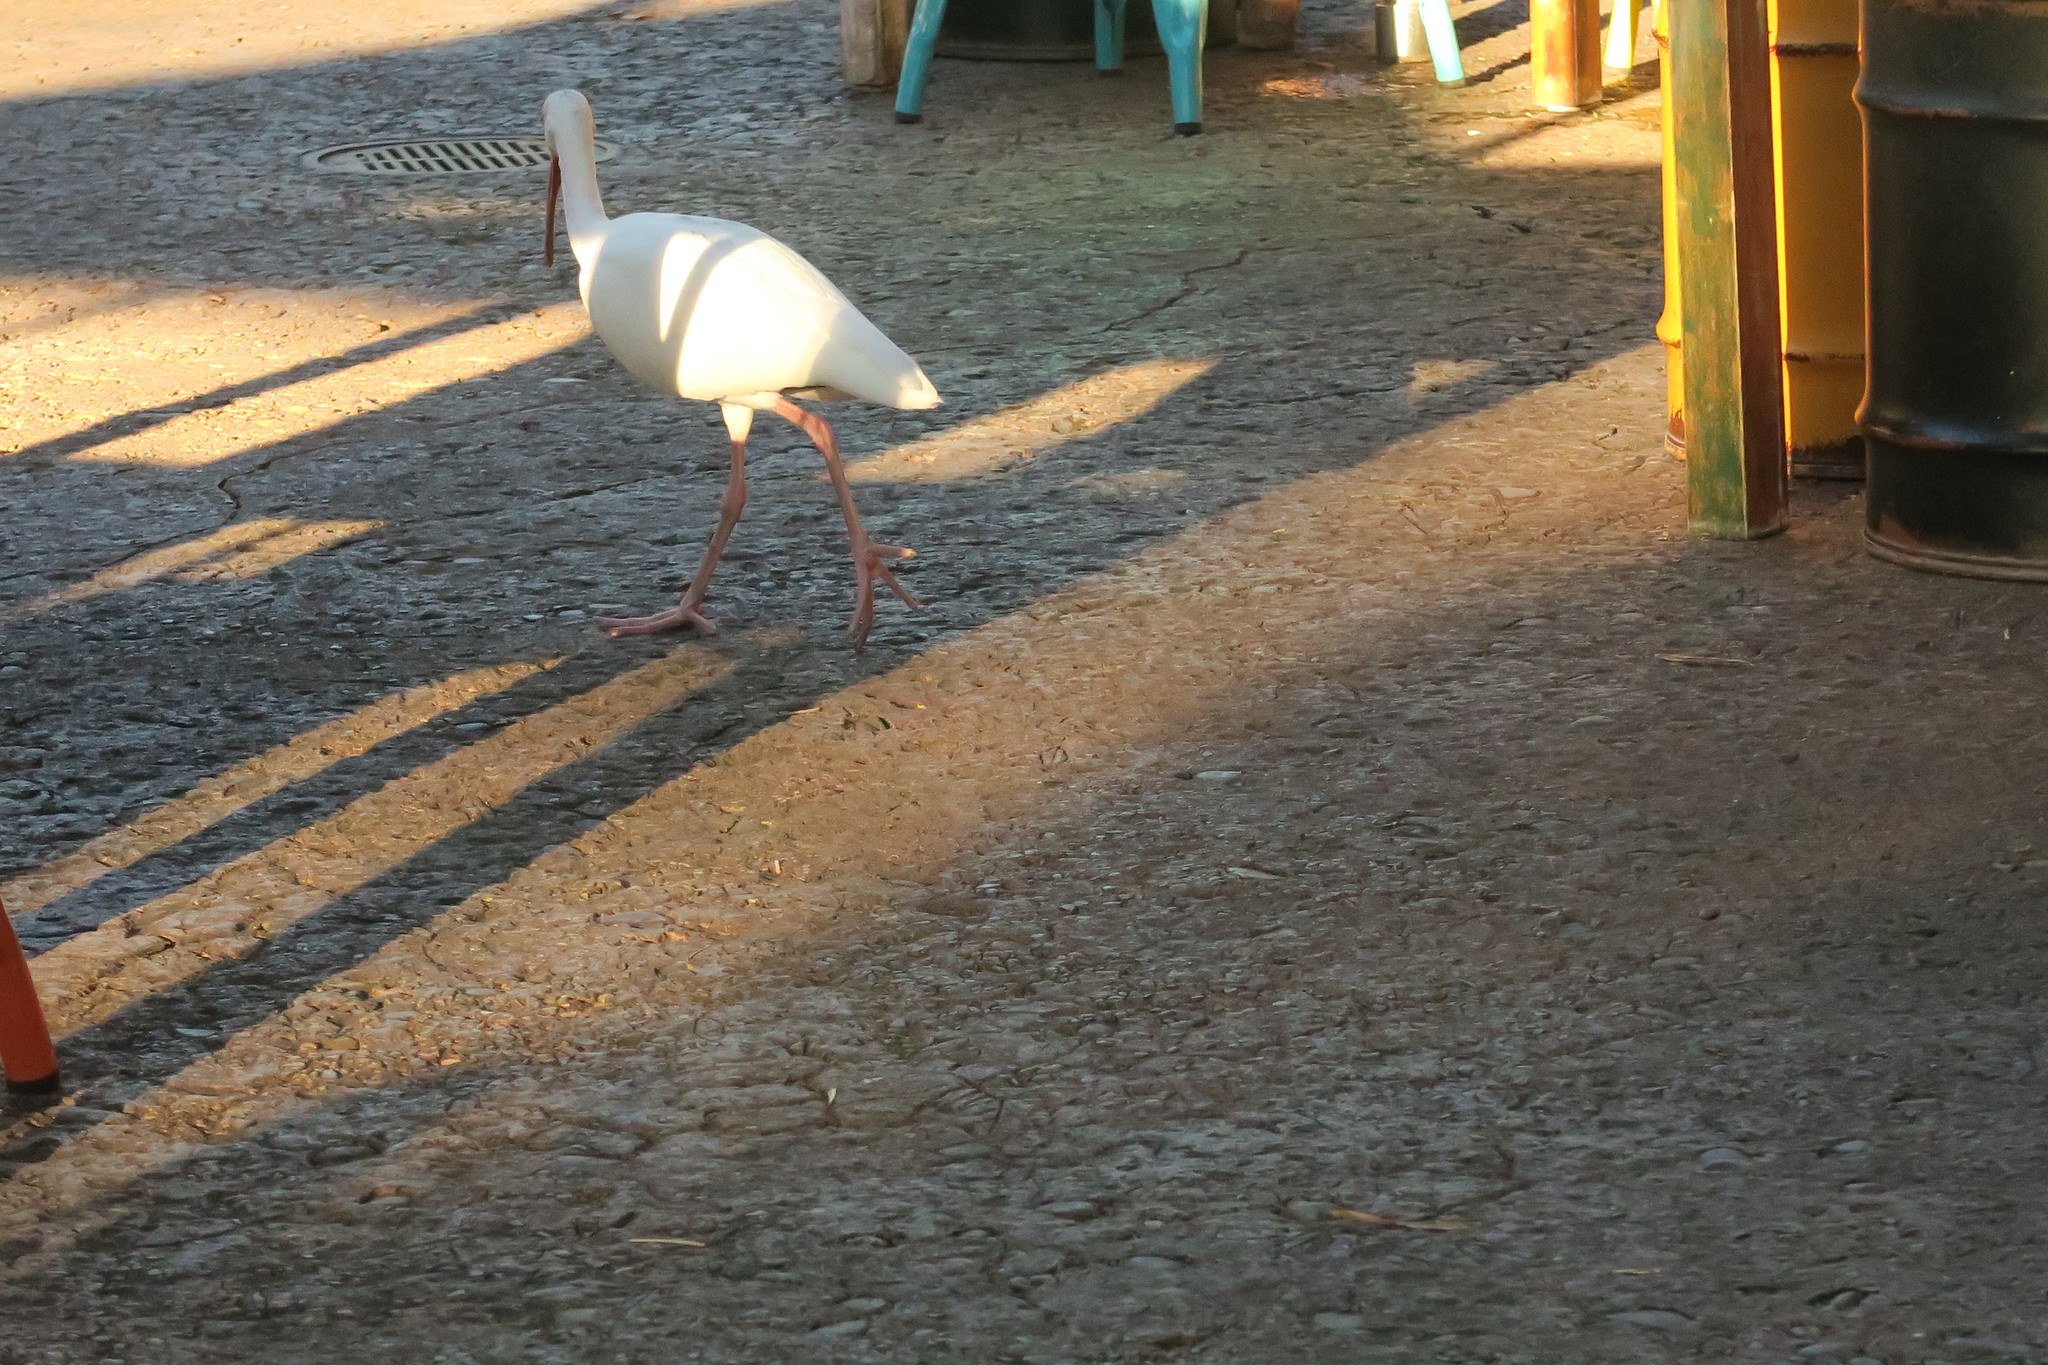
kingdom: Animalia
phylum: Chordata
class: Aves
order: Pelecaniformes
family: Threskiornithidae
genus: Eudocimus
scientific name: Eudocimus albus
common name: White ibis
